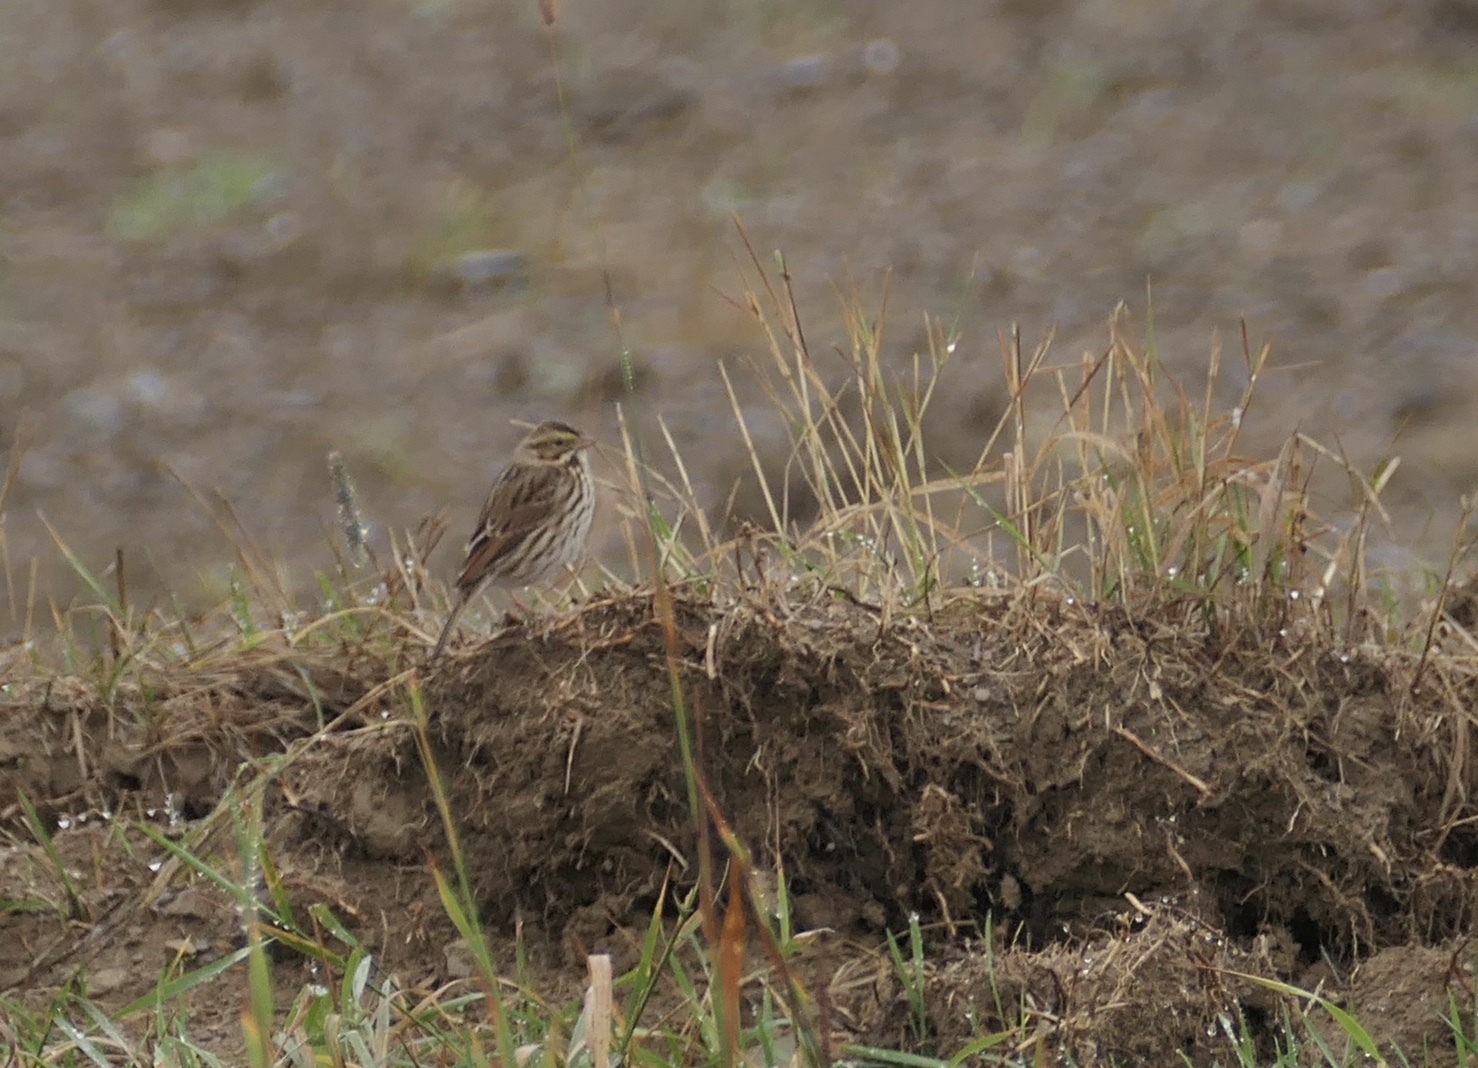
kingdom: Animalia
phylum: Chordata
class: Aves
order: Passeriformes
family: Passerellidae
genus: Passerculus
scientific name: Passerculus sandwichensis
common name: Savannah sparrow
